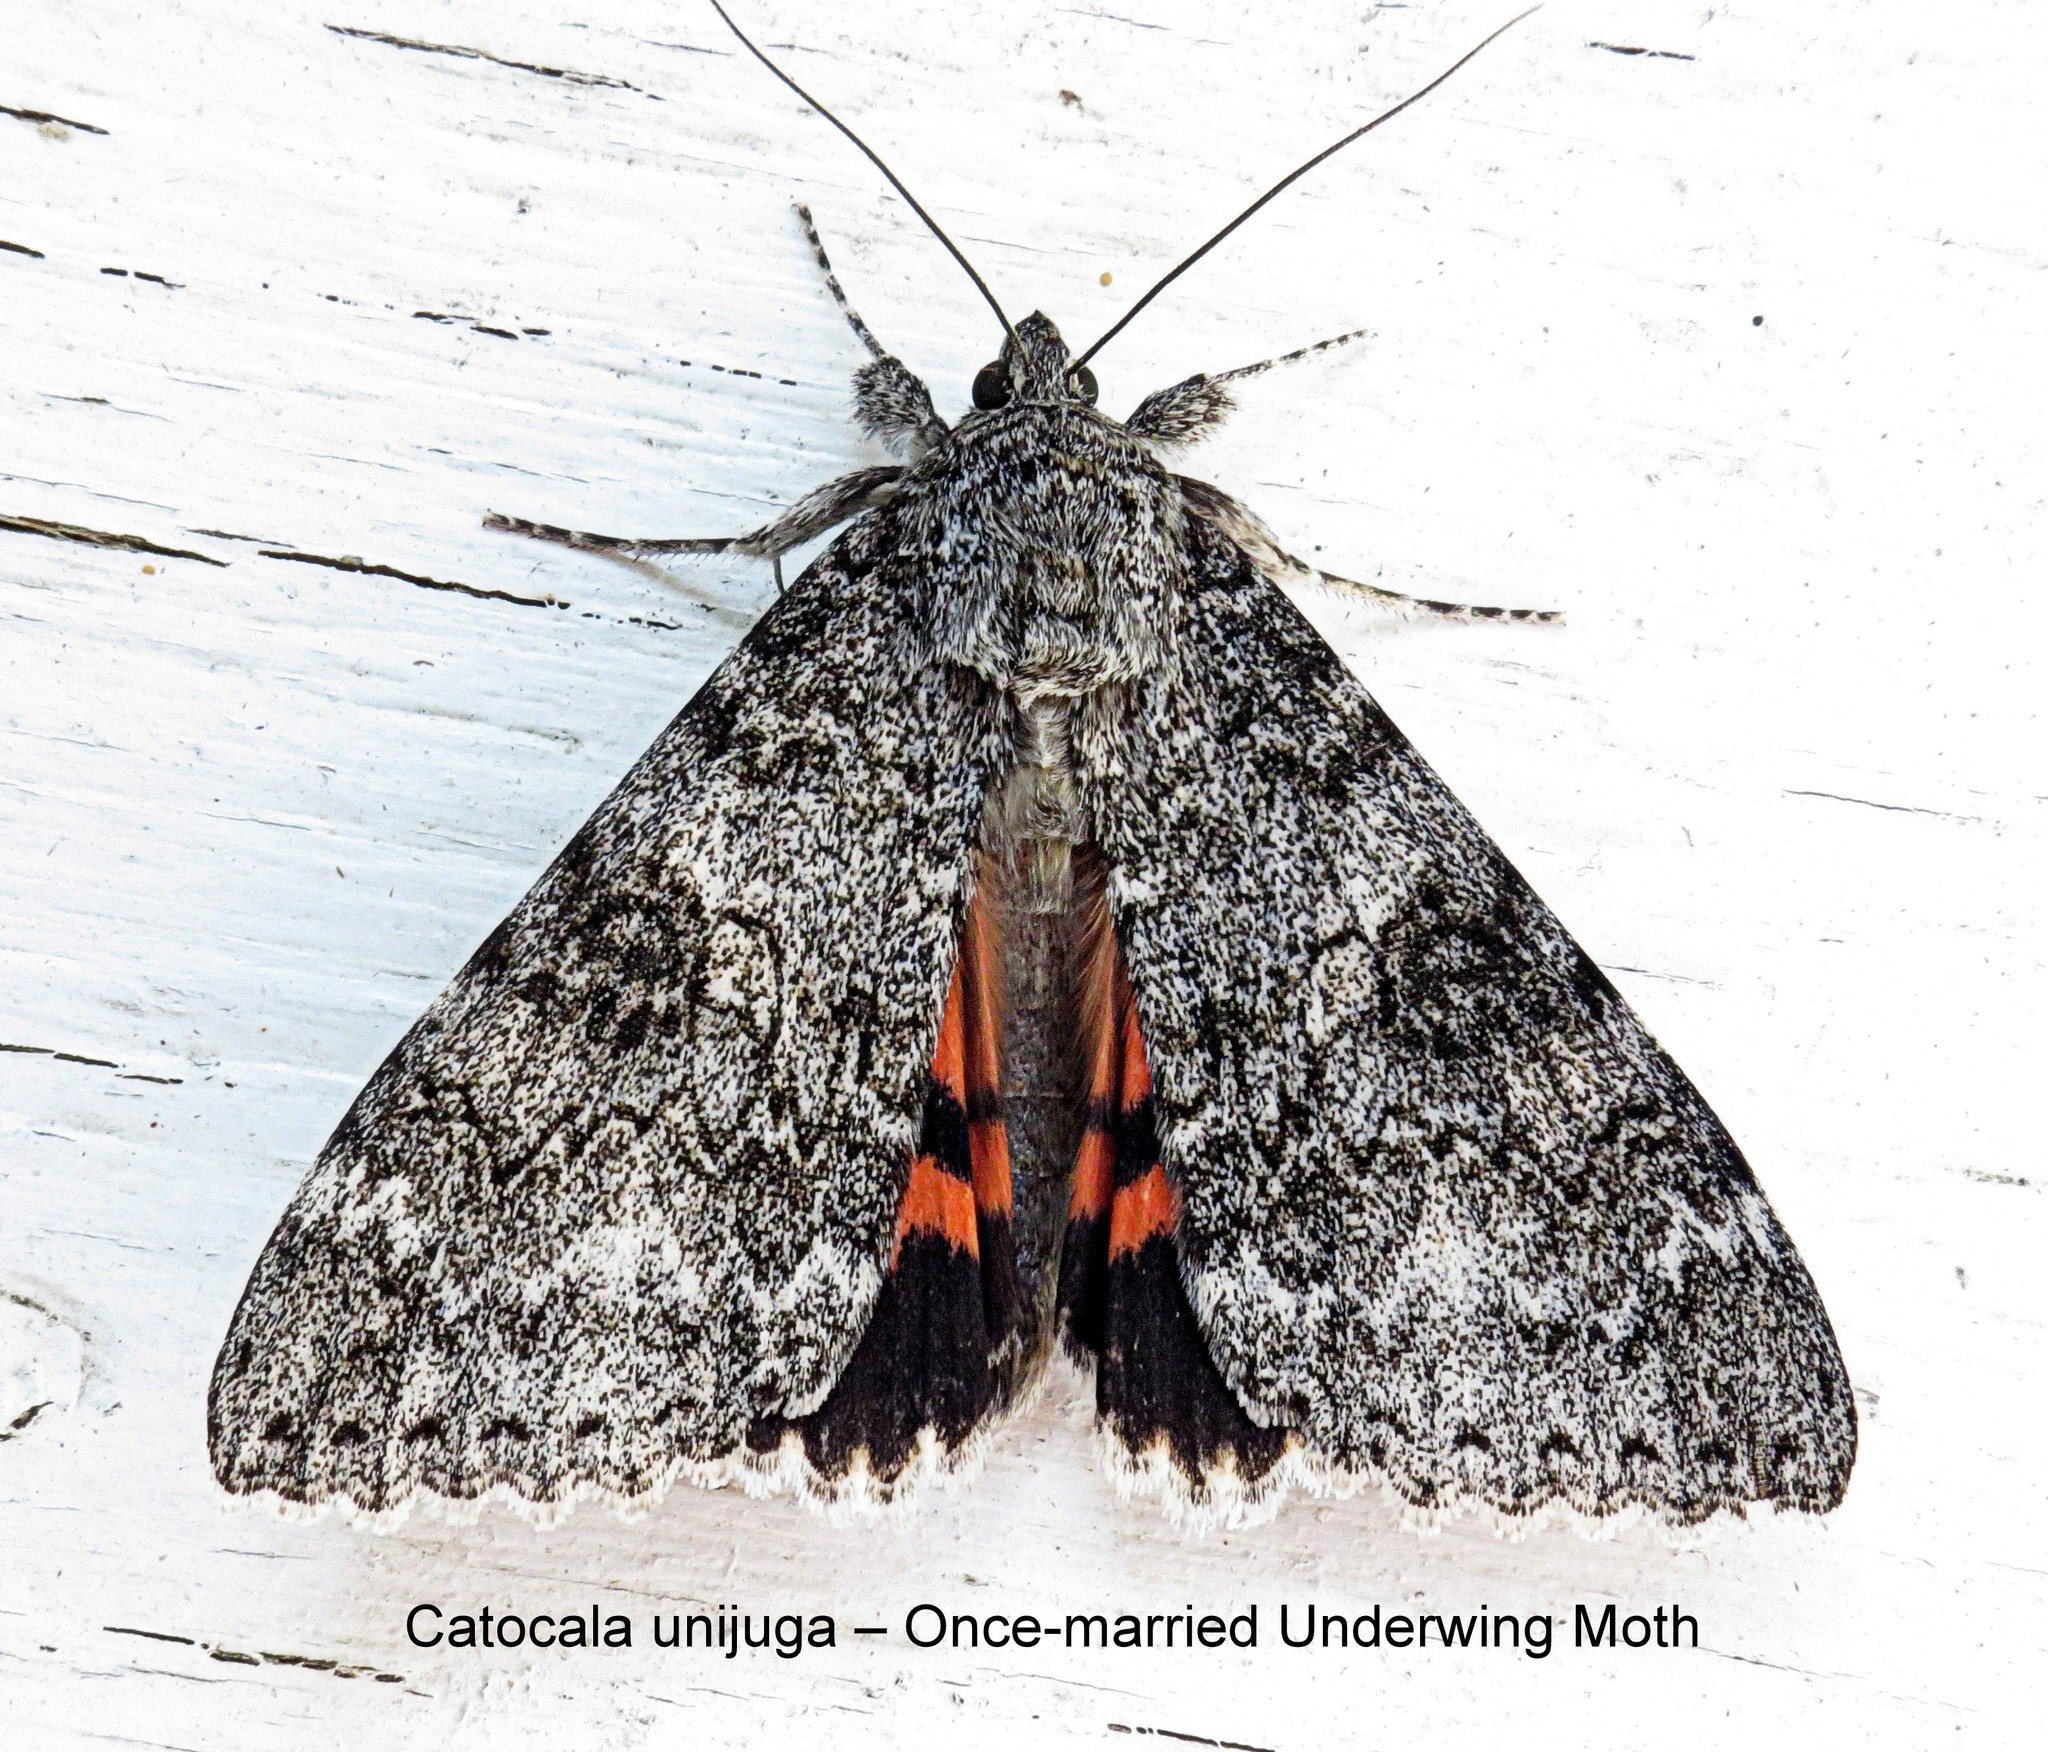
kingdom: Animalia
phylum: Arthropoda
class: Insecta
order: Lepidoptera
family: Erebidae
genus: Catocala
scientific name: Catocala unijuga
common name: Once-married underwing
